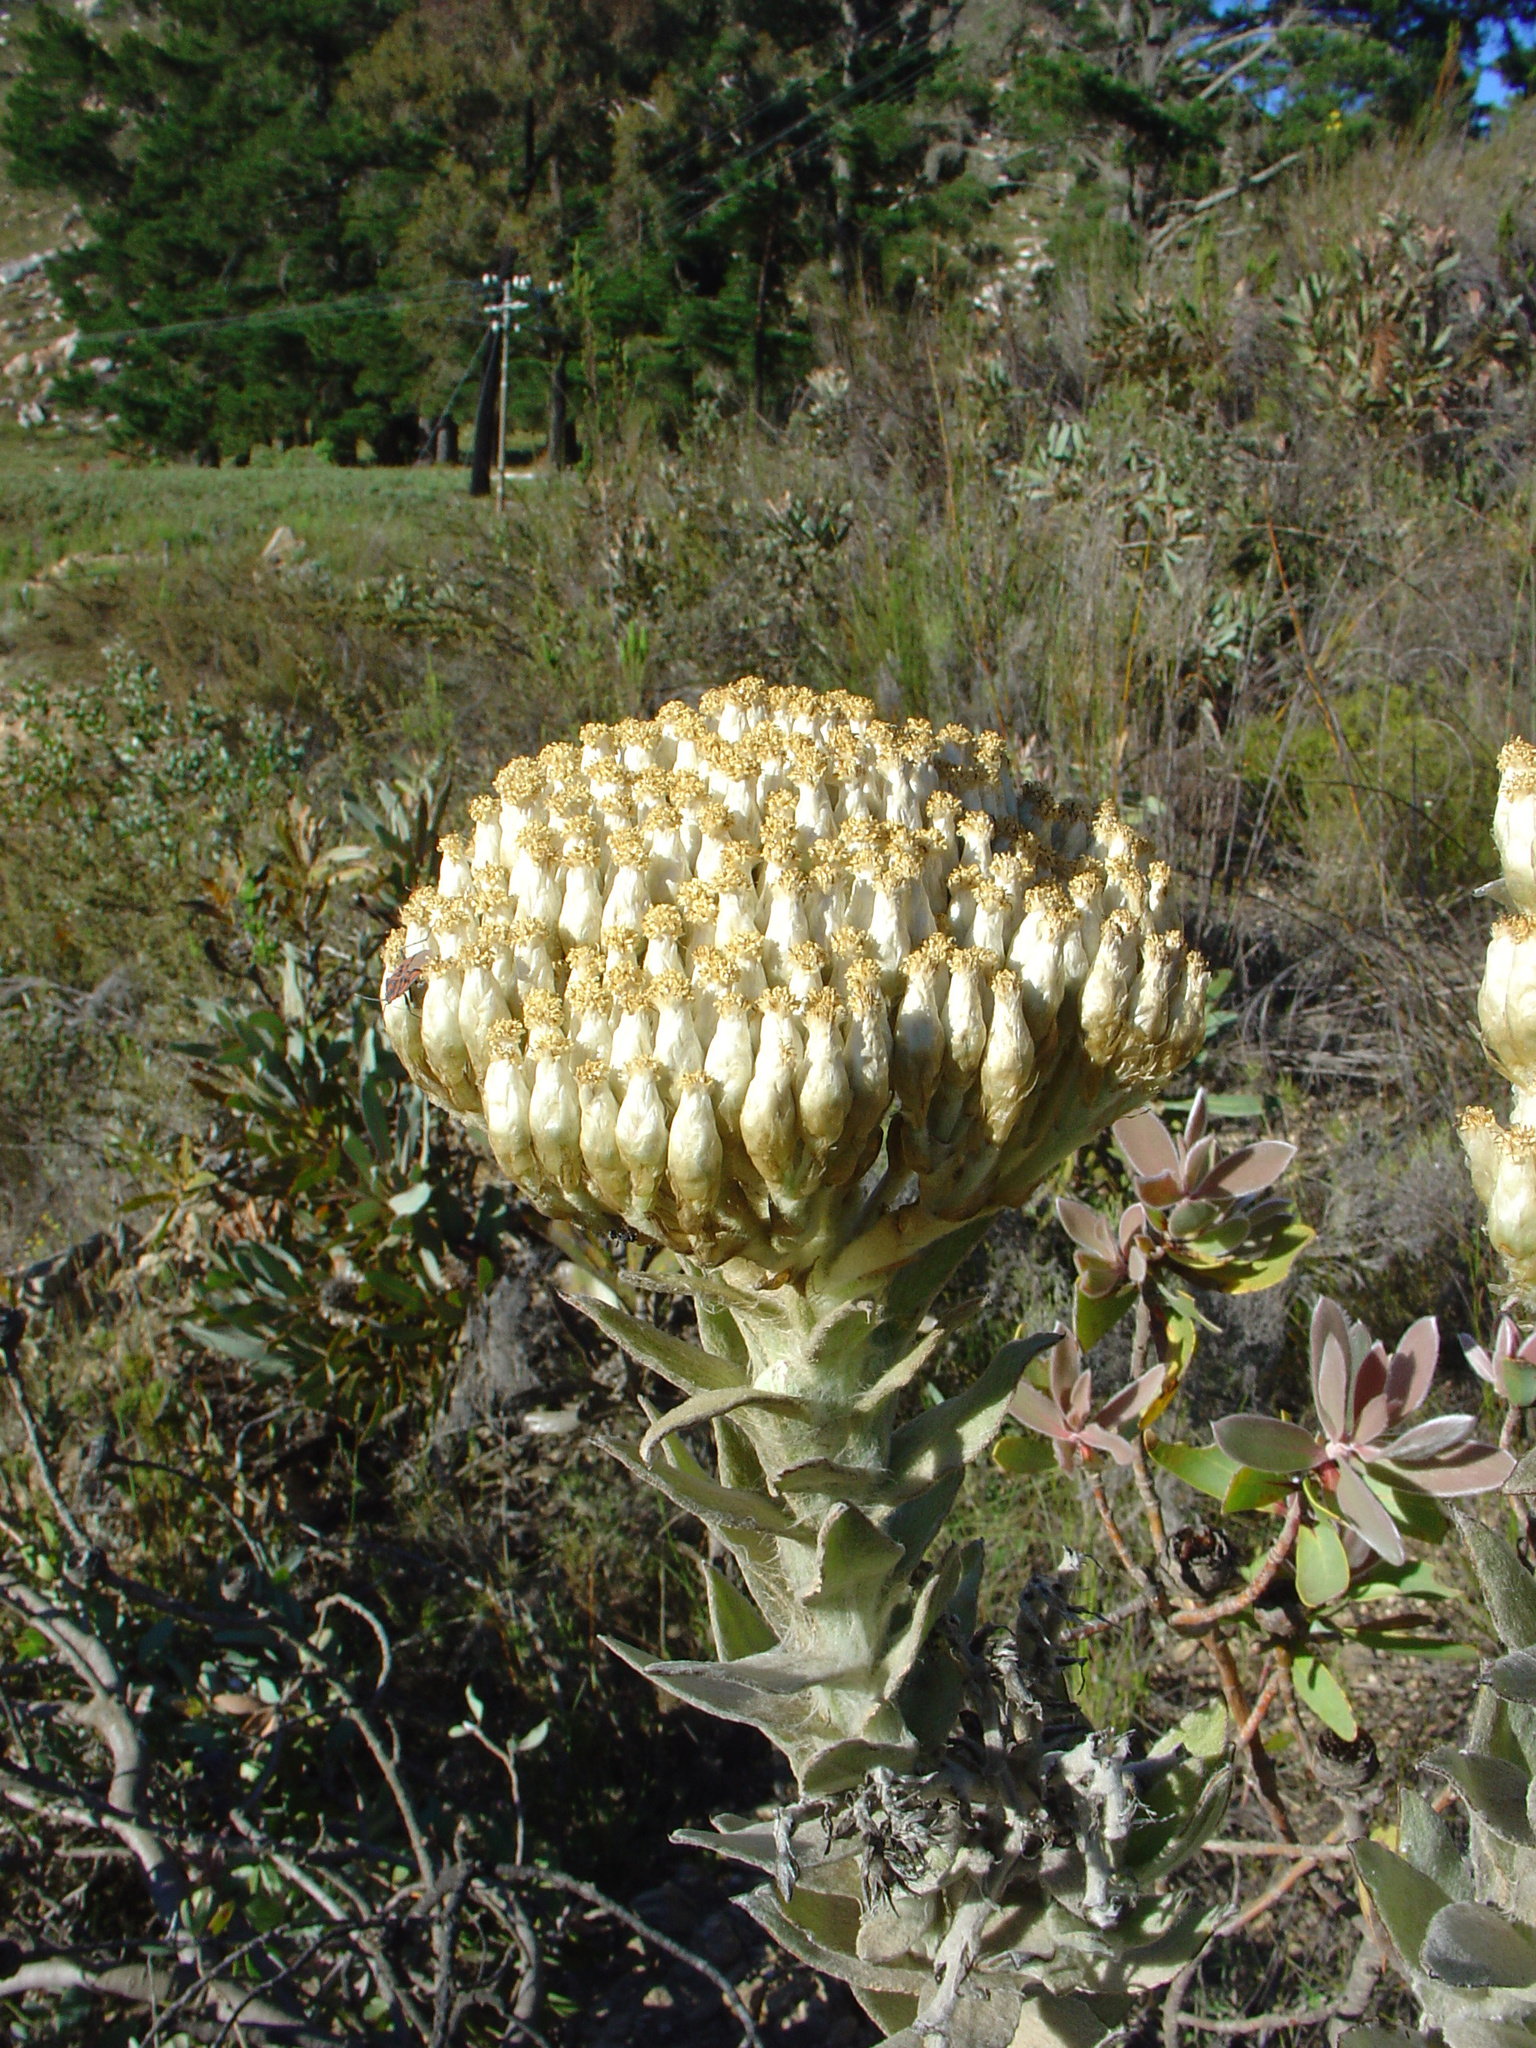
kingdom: Plantae
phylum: Tracheophyta
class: Magnoliopsida
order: Asterales
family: Asteraceae
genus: Syncarpha
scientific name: Syncarpha milleflora
